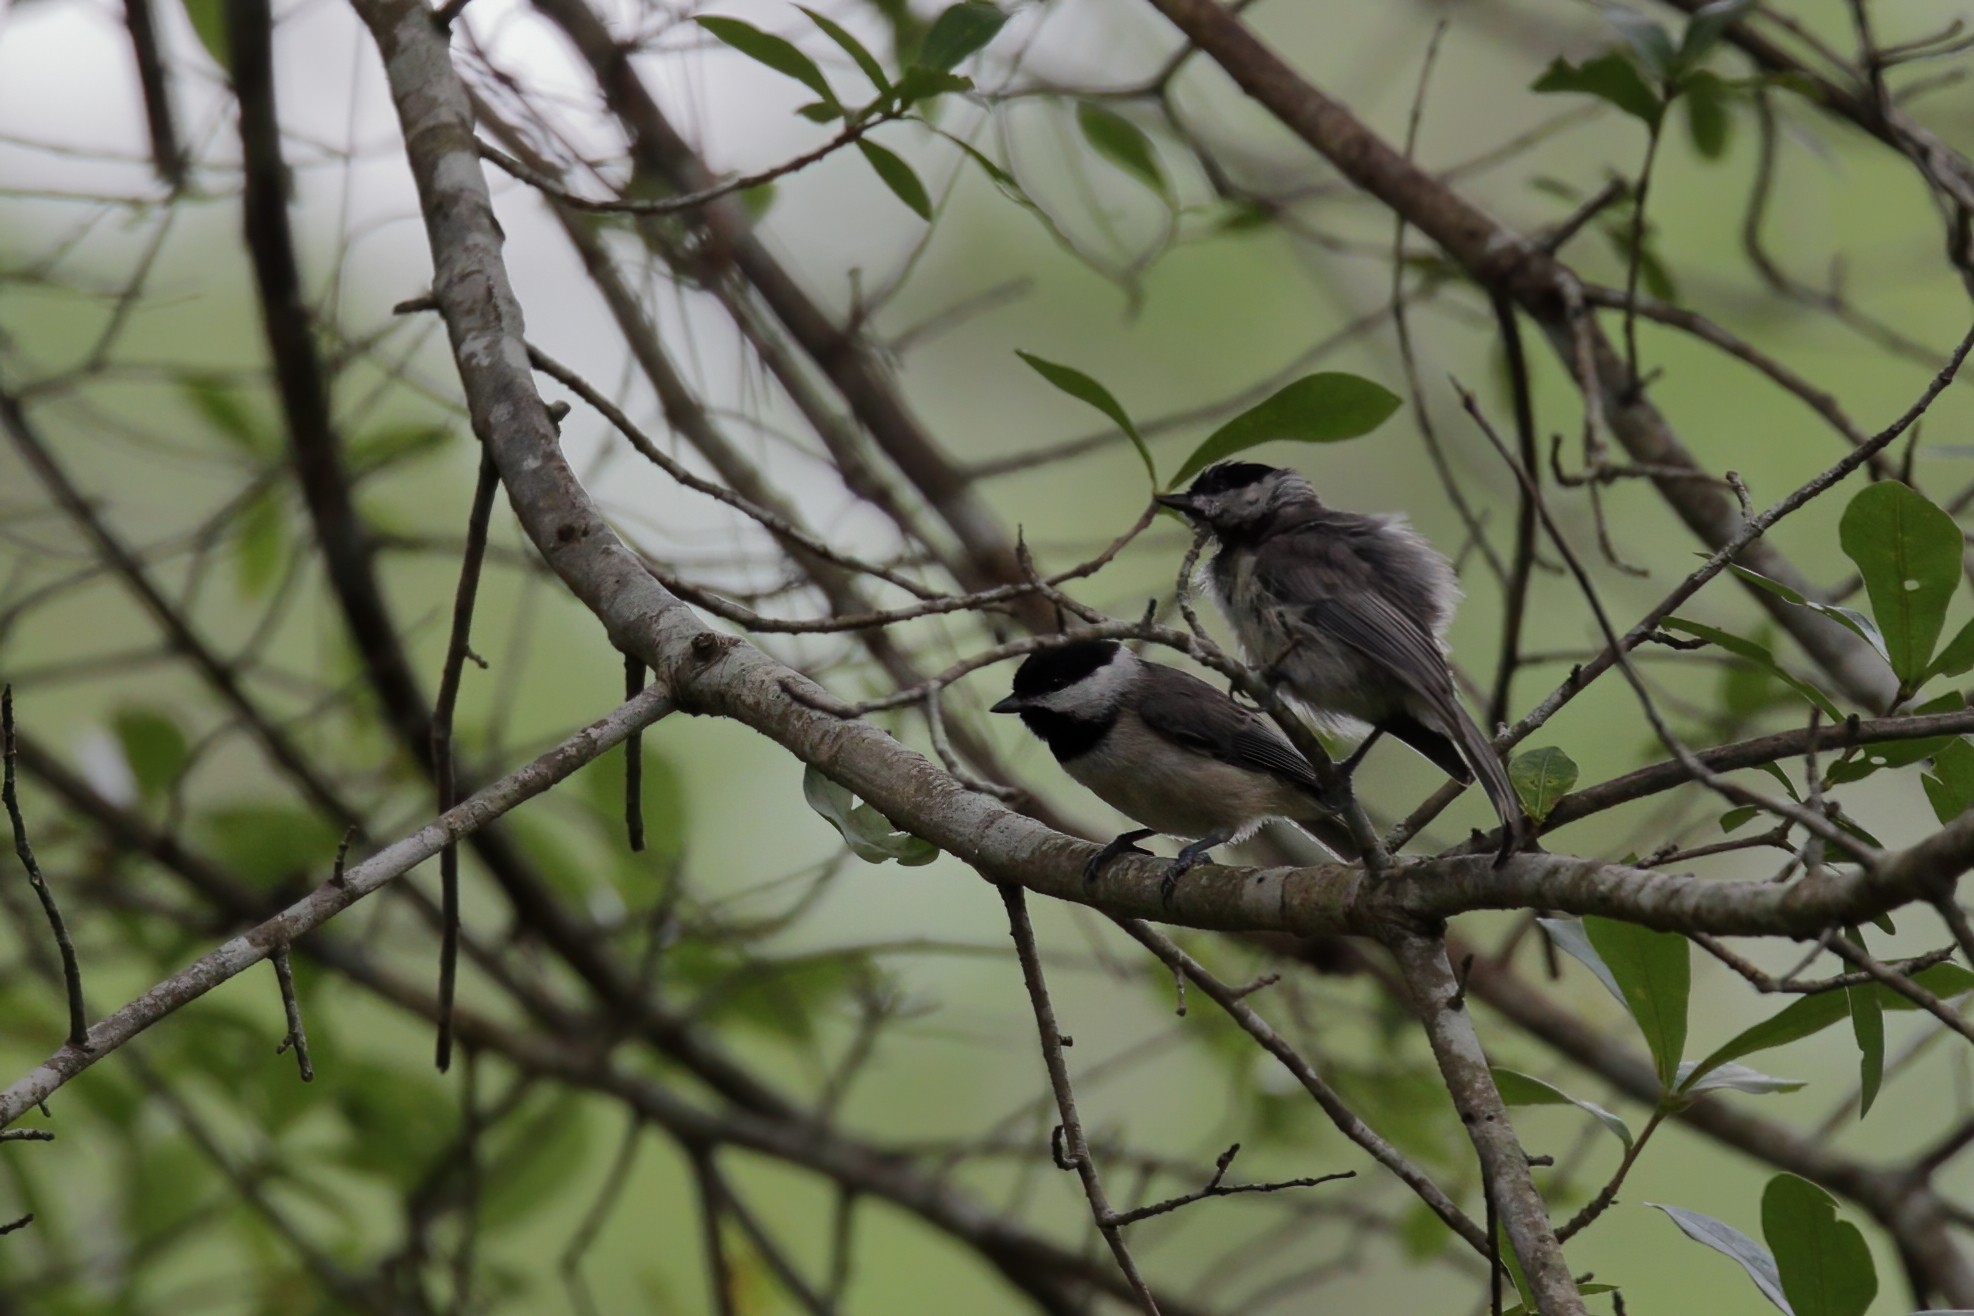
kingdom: Animalia
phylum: Chordata
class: Aves
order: Passeriformes
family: Paridae
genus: Poecile
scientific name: Poecile carolinensis
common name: Carolina chickadee
